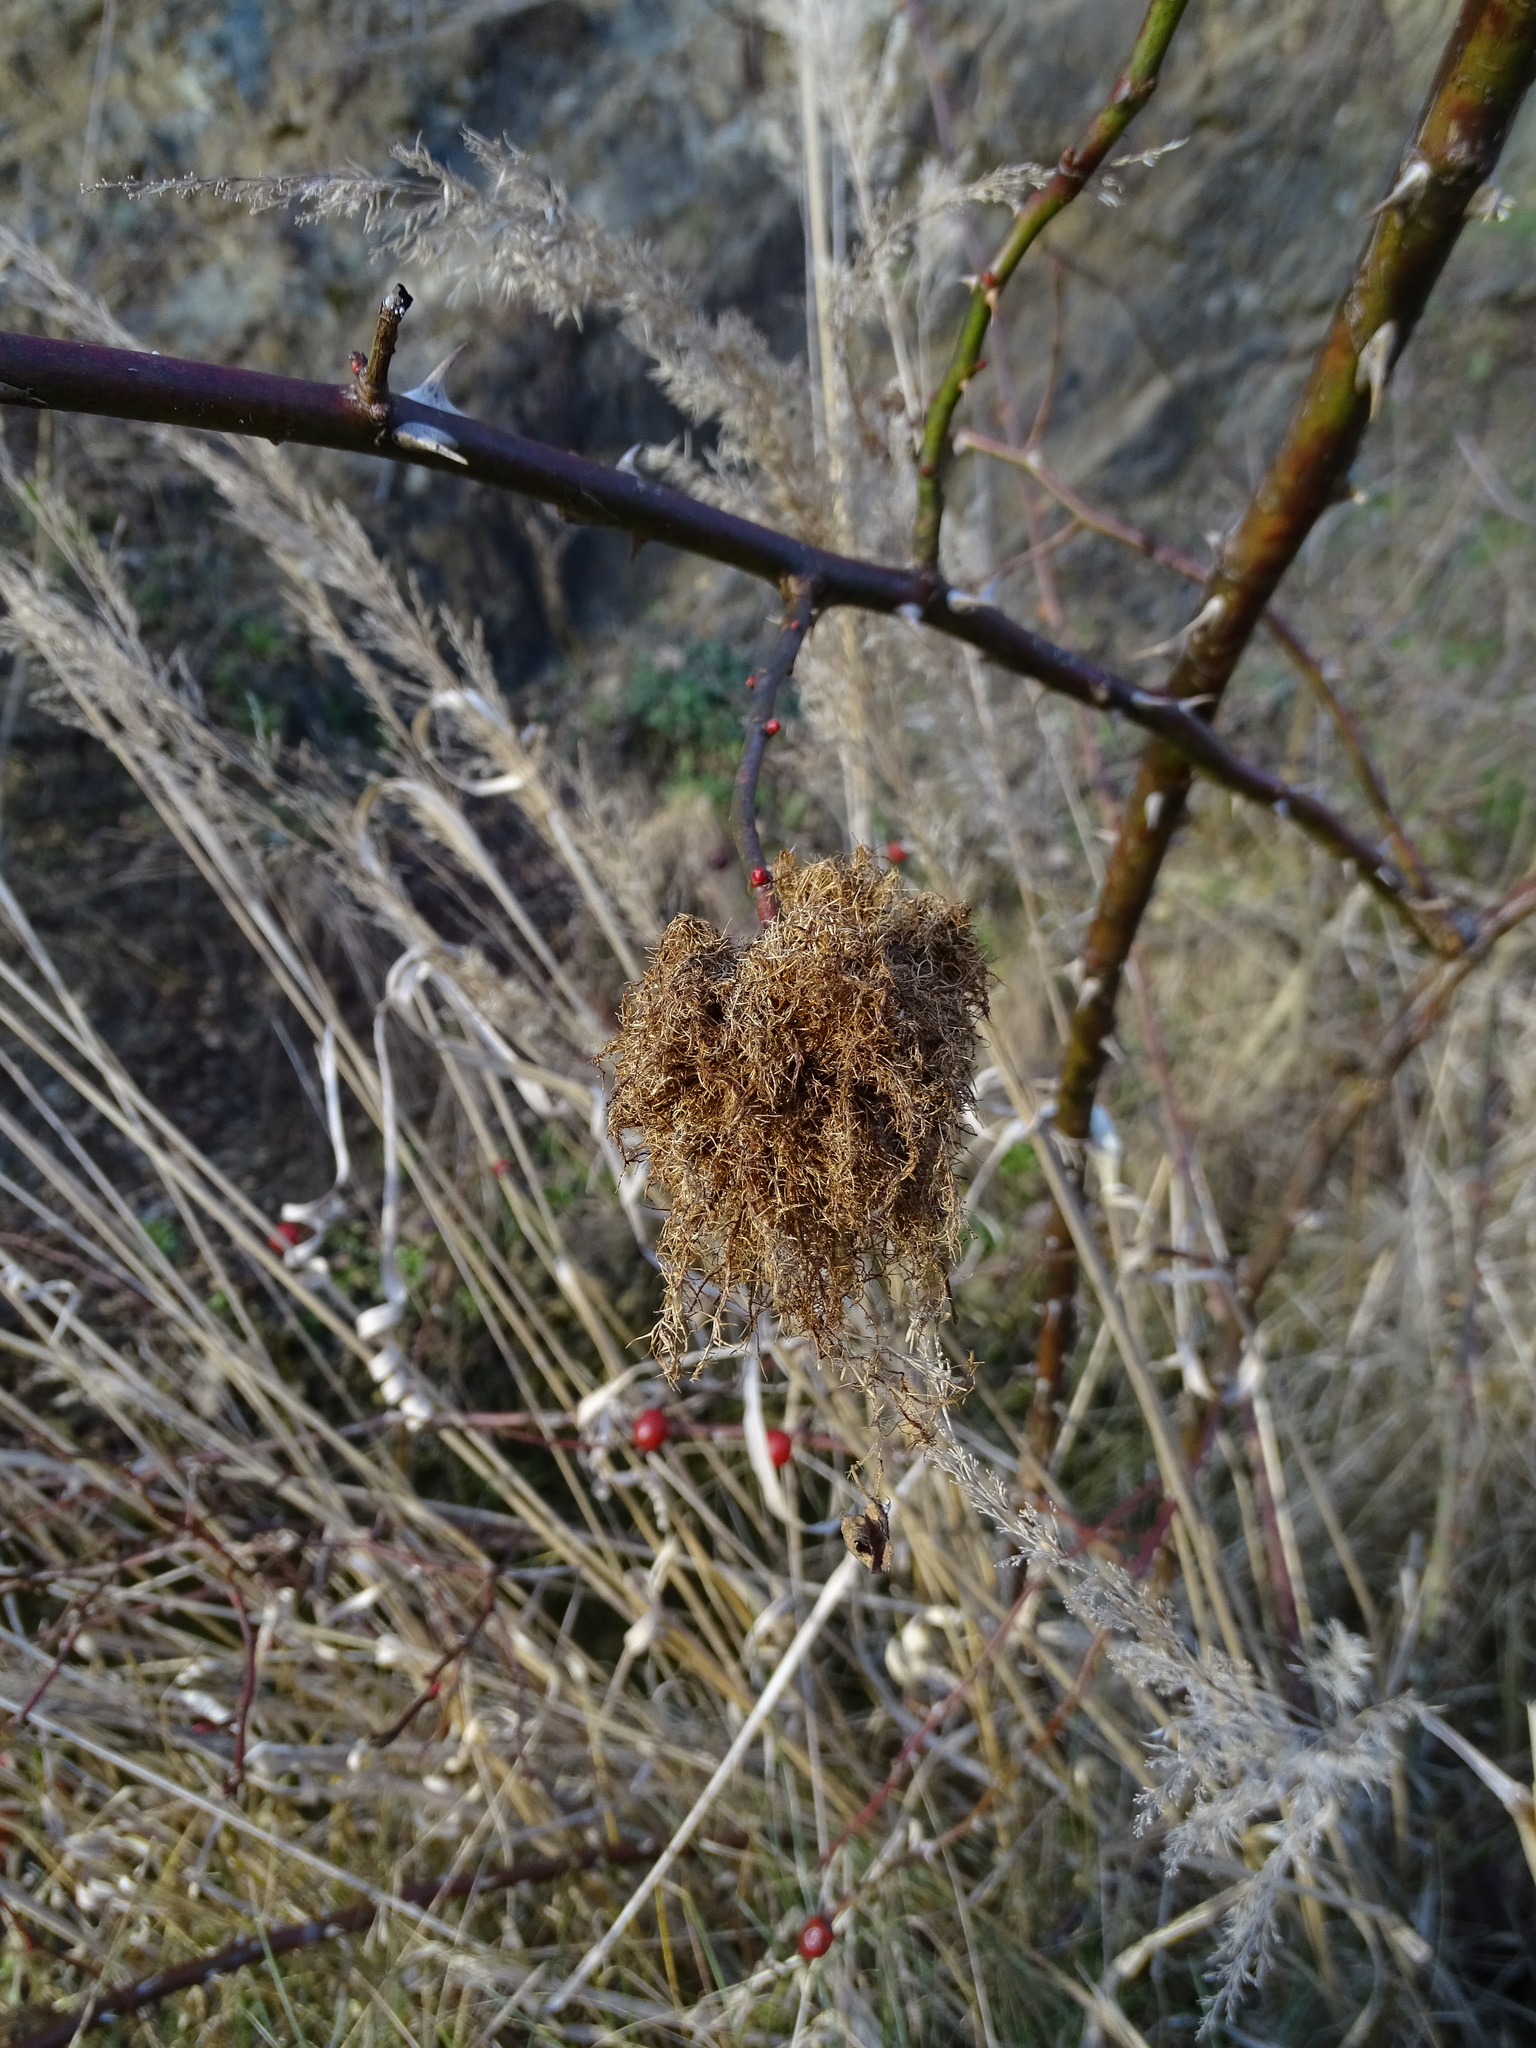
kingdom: Animalia
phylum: Arthropoda
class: Insecta
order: Hymenoptera
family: Cynipidae
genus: Diplolepis
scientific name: Diplolepis rosae
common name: Bedeguar gall
